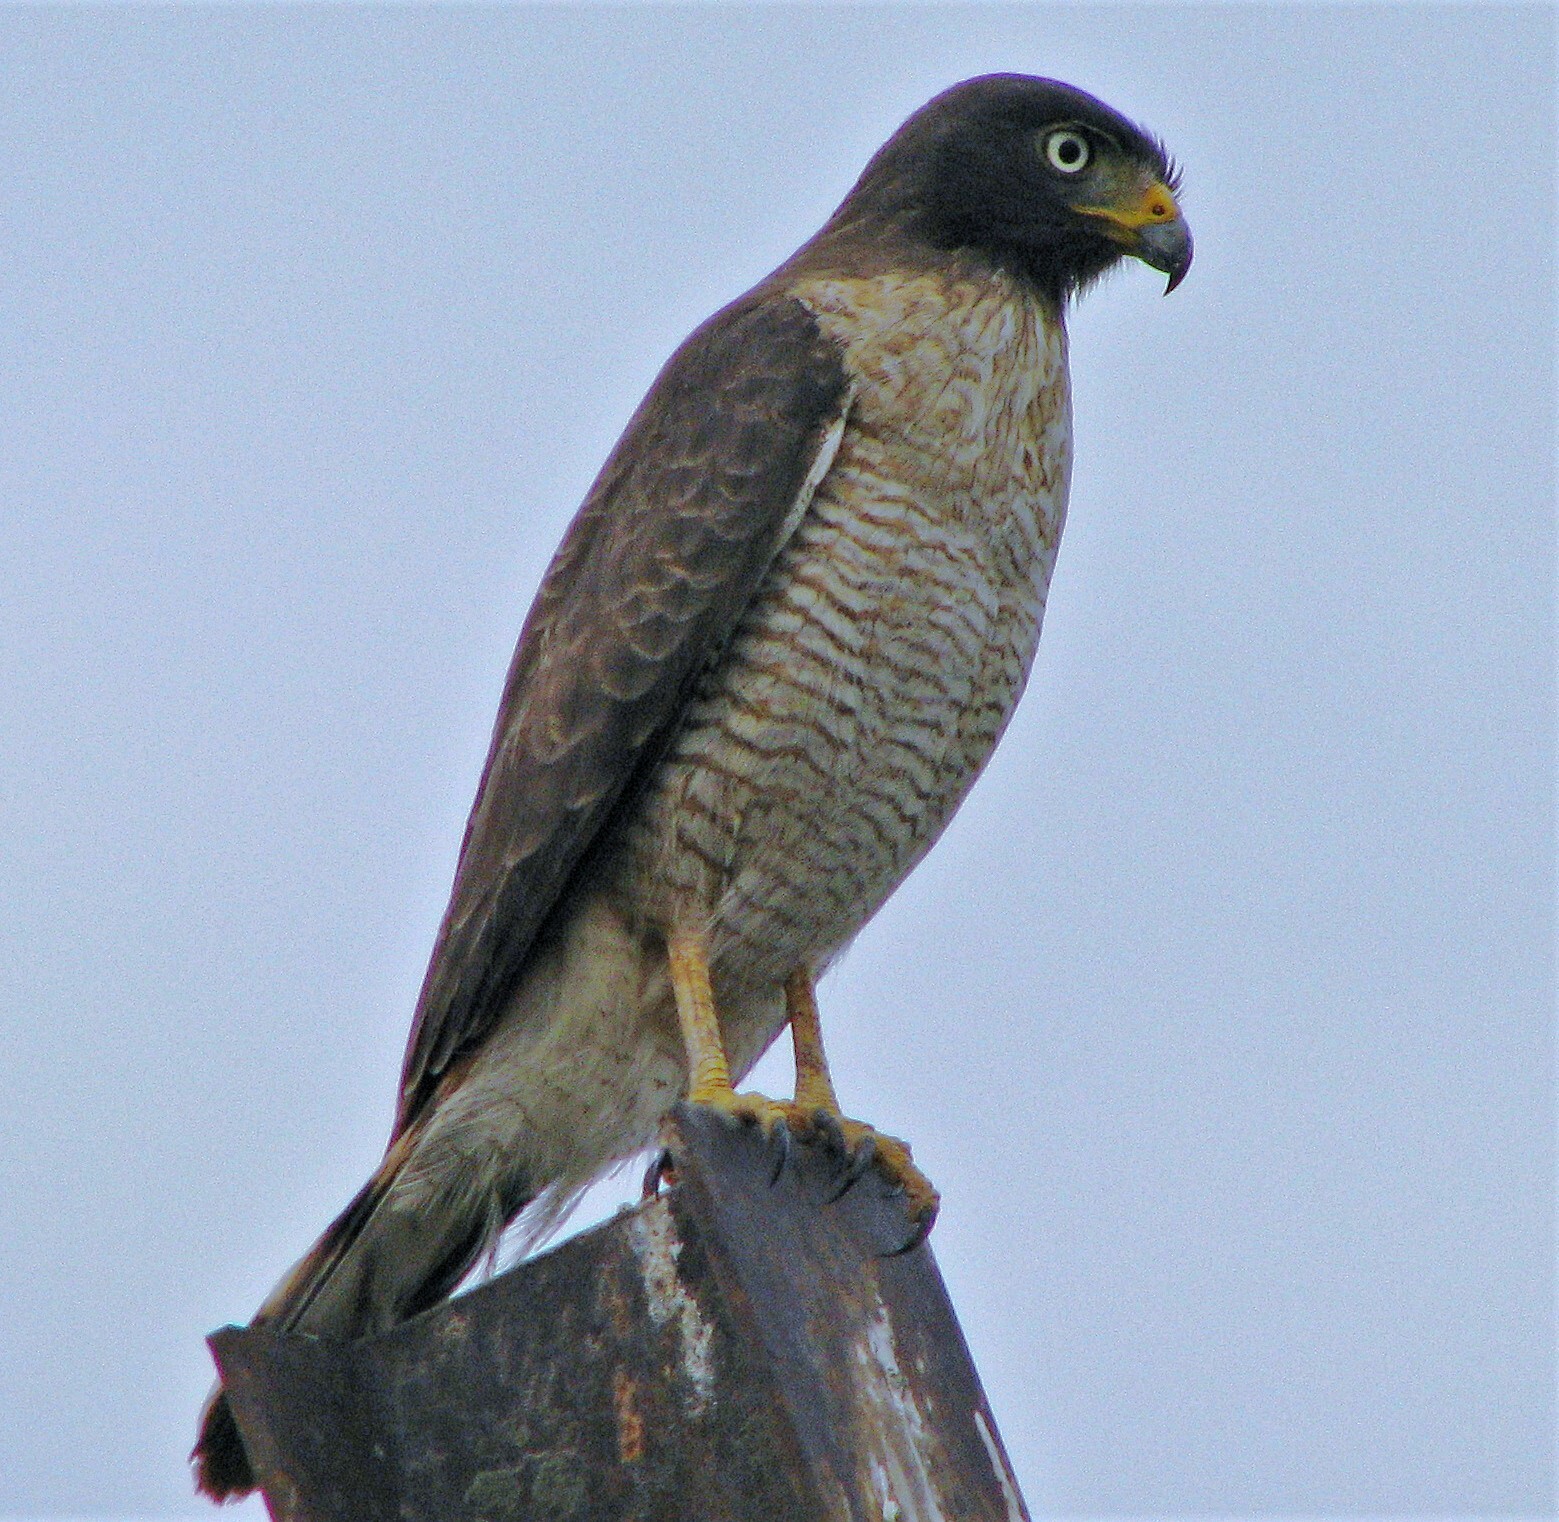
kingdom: Animalia
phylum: Chordata
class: Aves
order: Accipitriformes
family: Accipitridae
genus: Rupornis
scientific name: Rupornis magnirostris
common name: Roadside hawk
